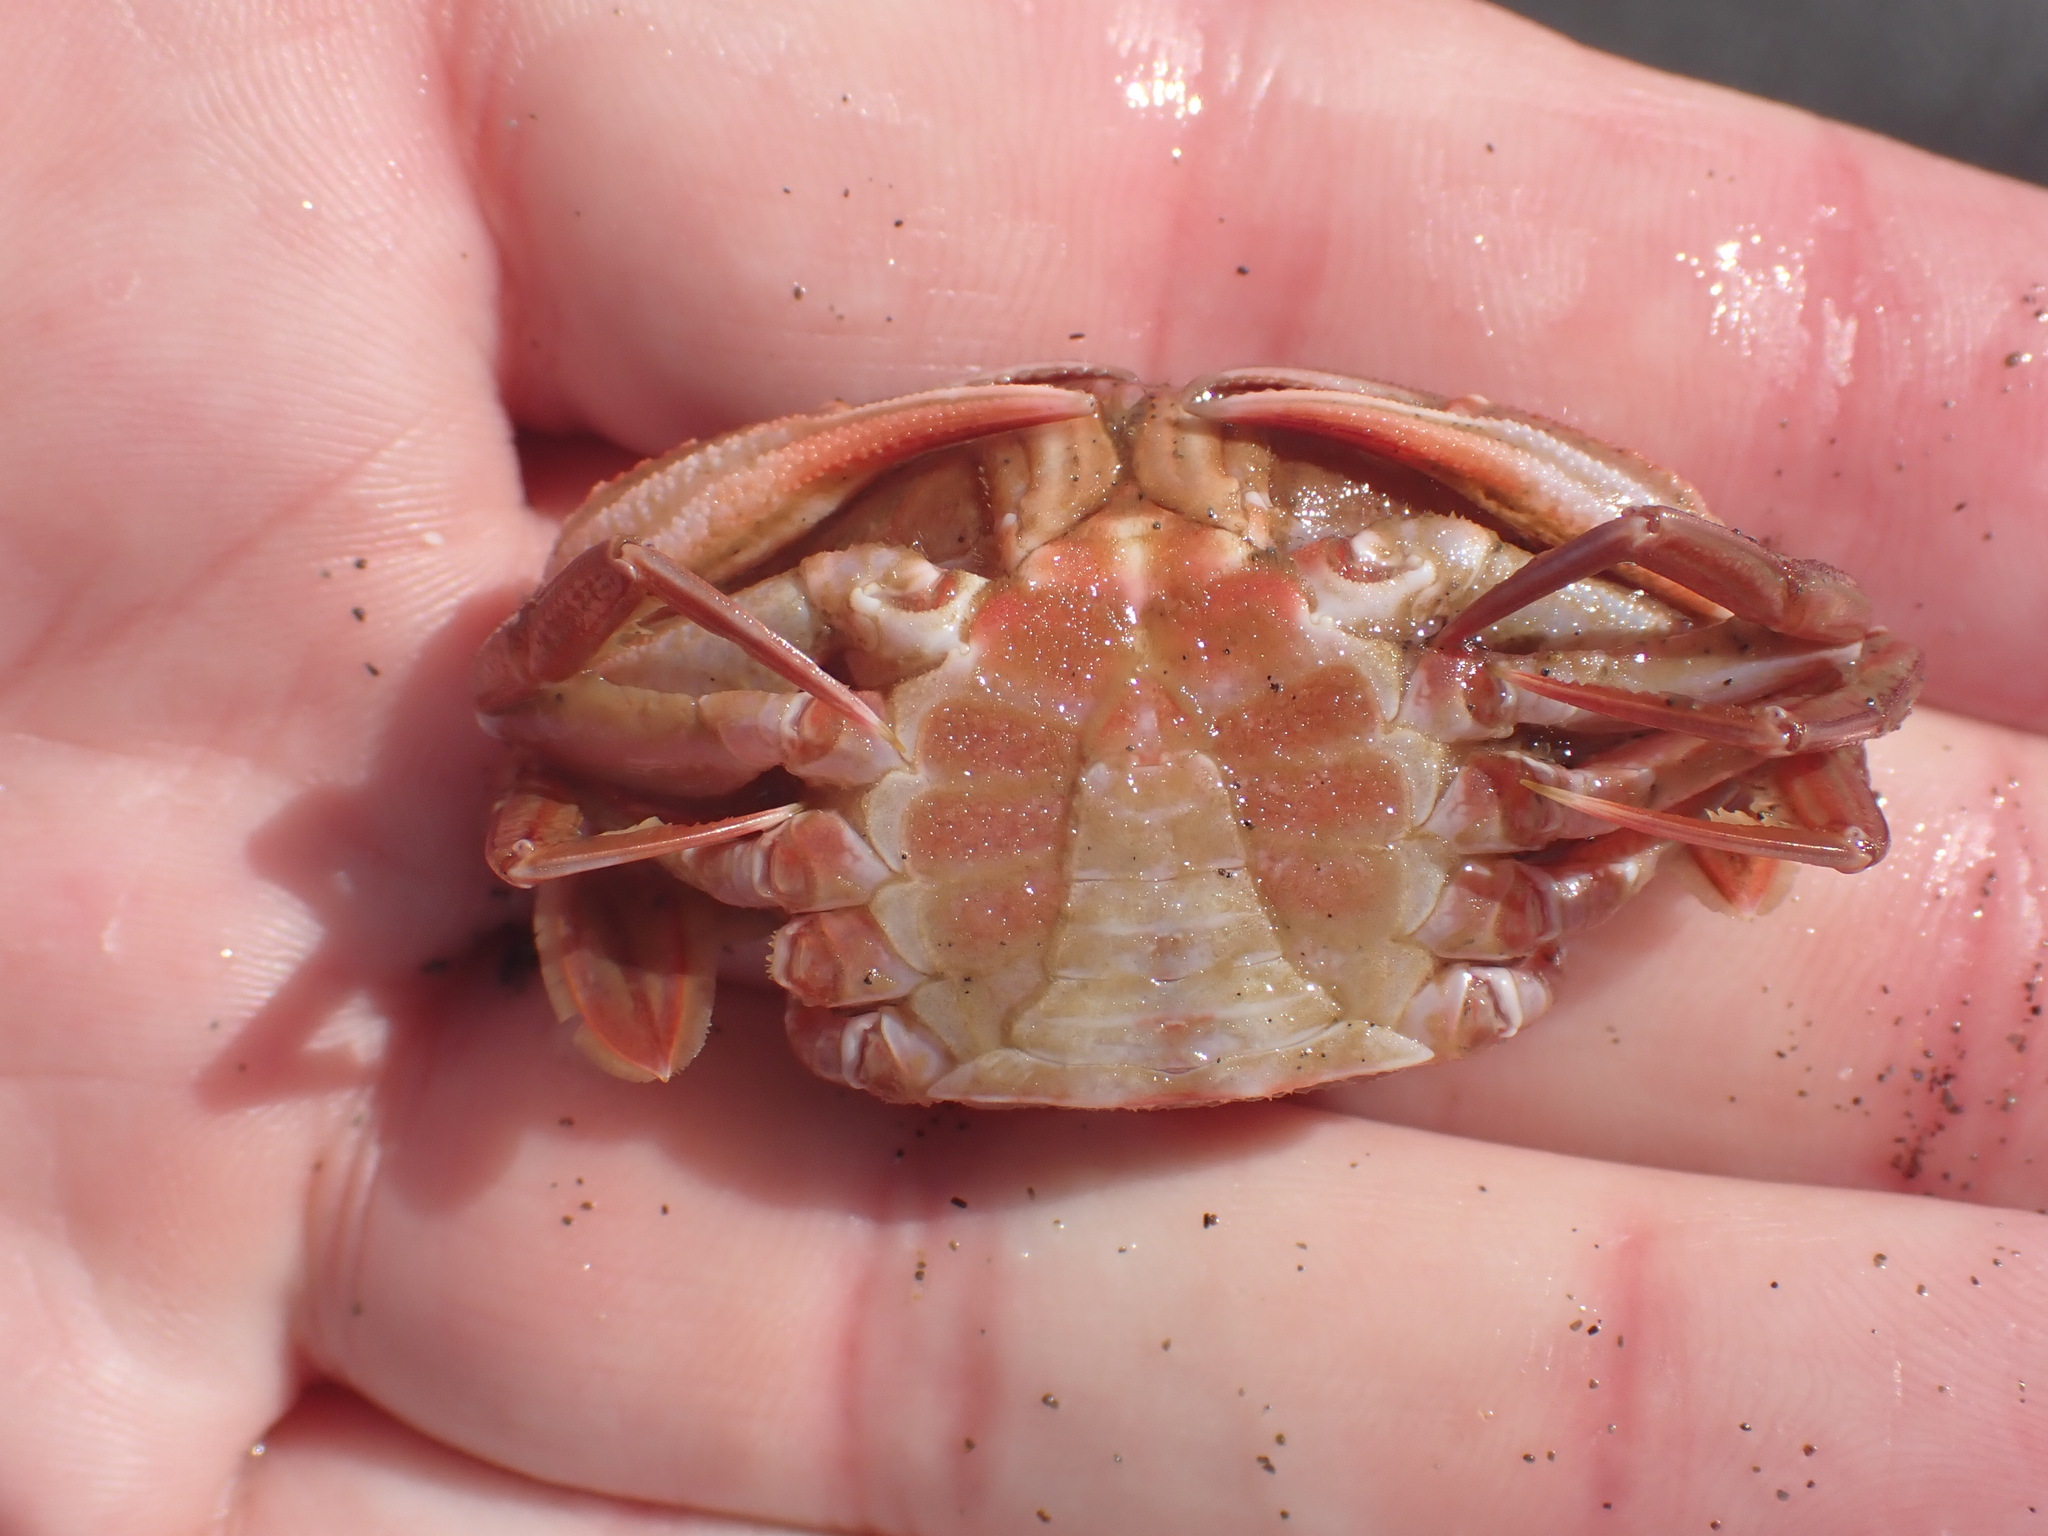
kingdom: Animalia
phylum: Arthropoda
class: Malacostraca
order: Decapoda
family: Geryonidae
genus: Nectocarcinus
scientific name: Nectocarcinus antarcticus
